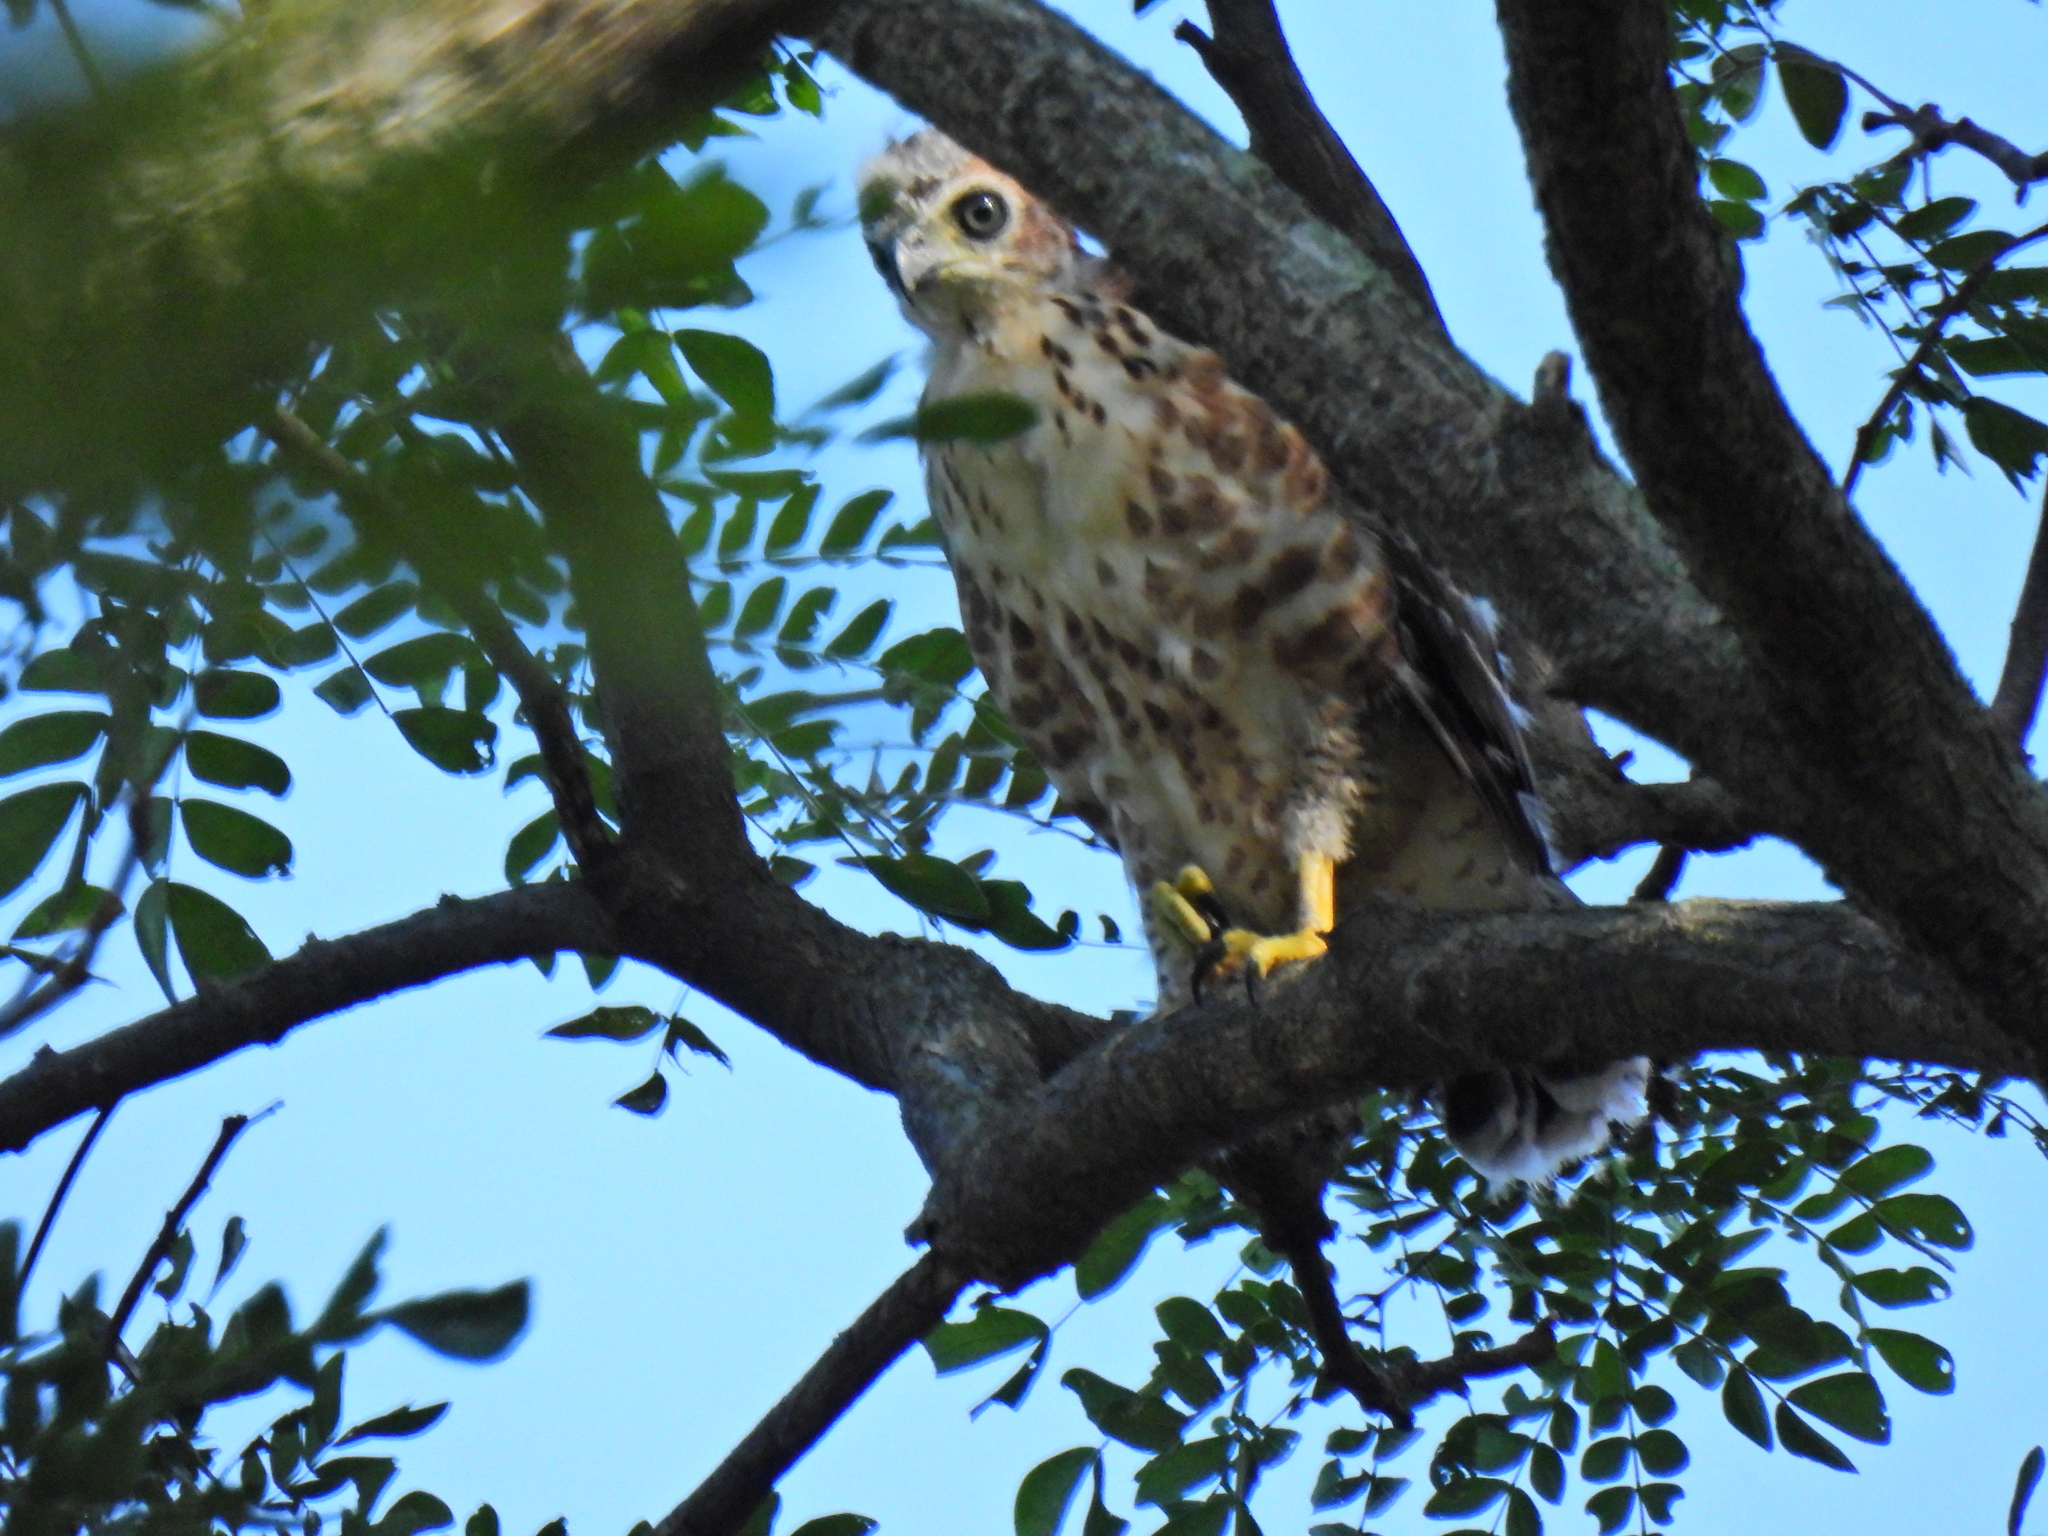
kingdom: Animalia
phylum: Chordata
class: Aves
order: Accipitriformes
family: Accipitridae
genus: Accipiter
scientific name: Accipiter trivirgatus
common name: Crested goshawk
